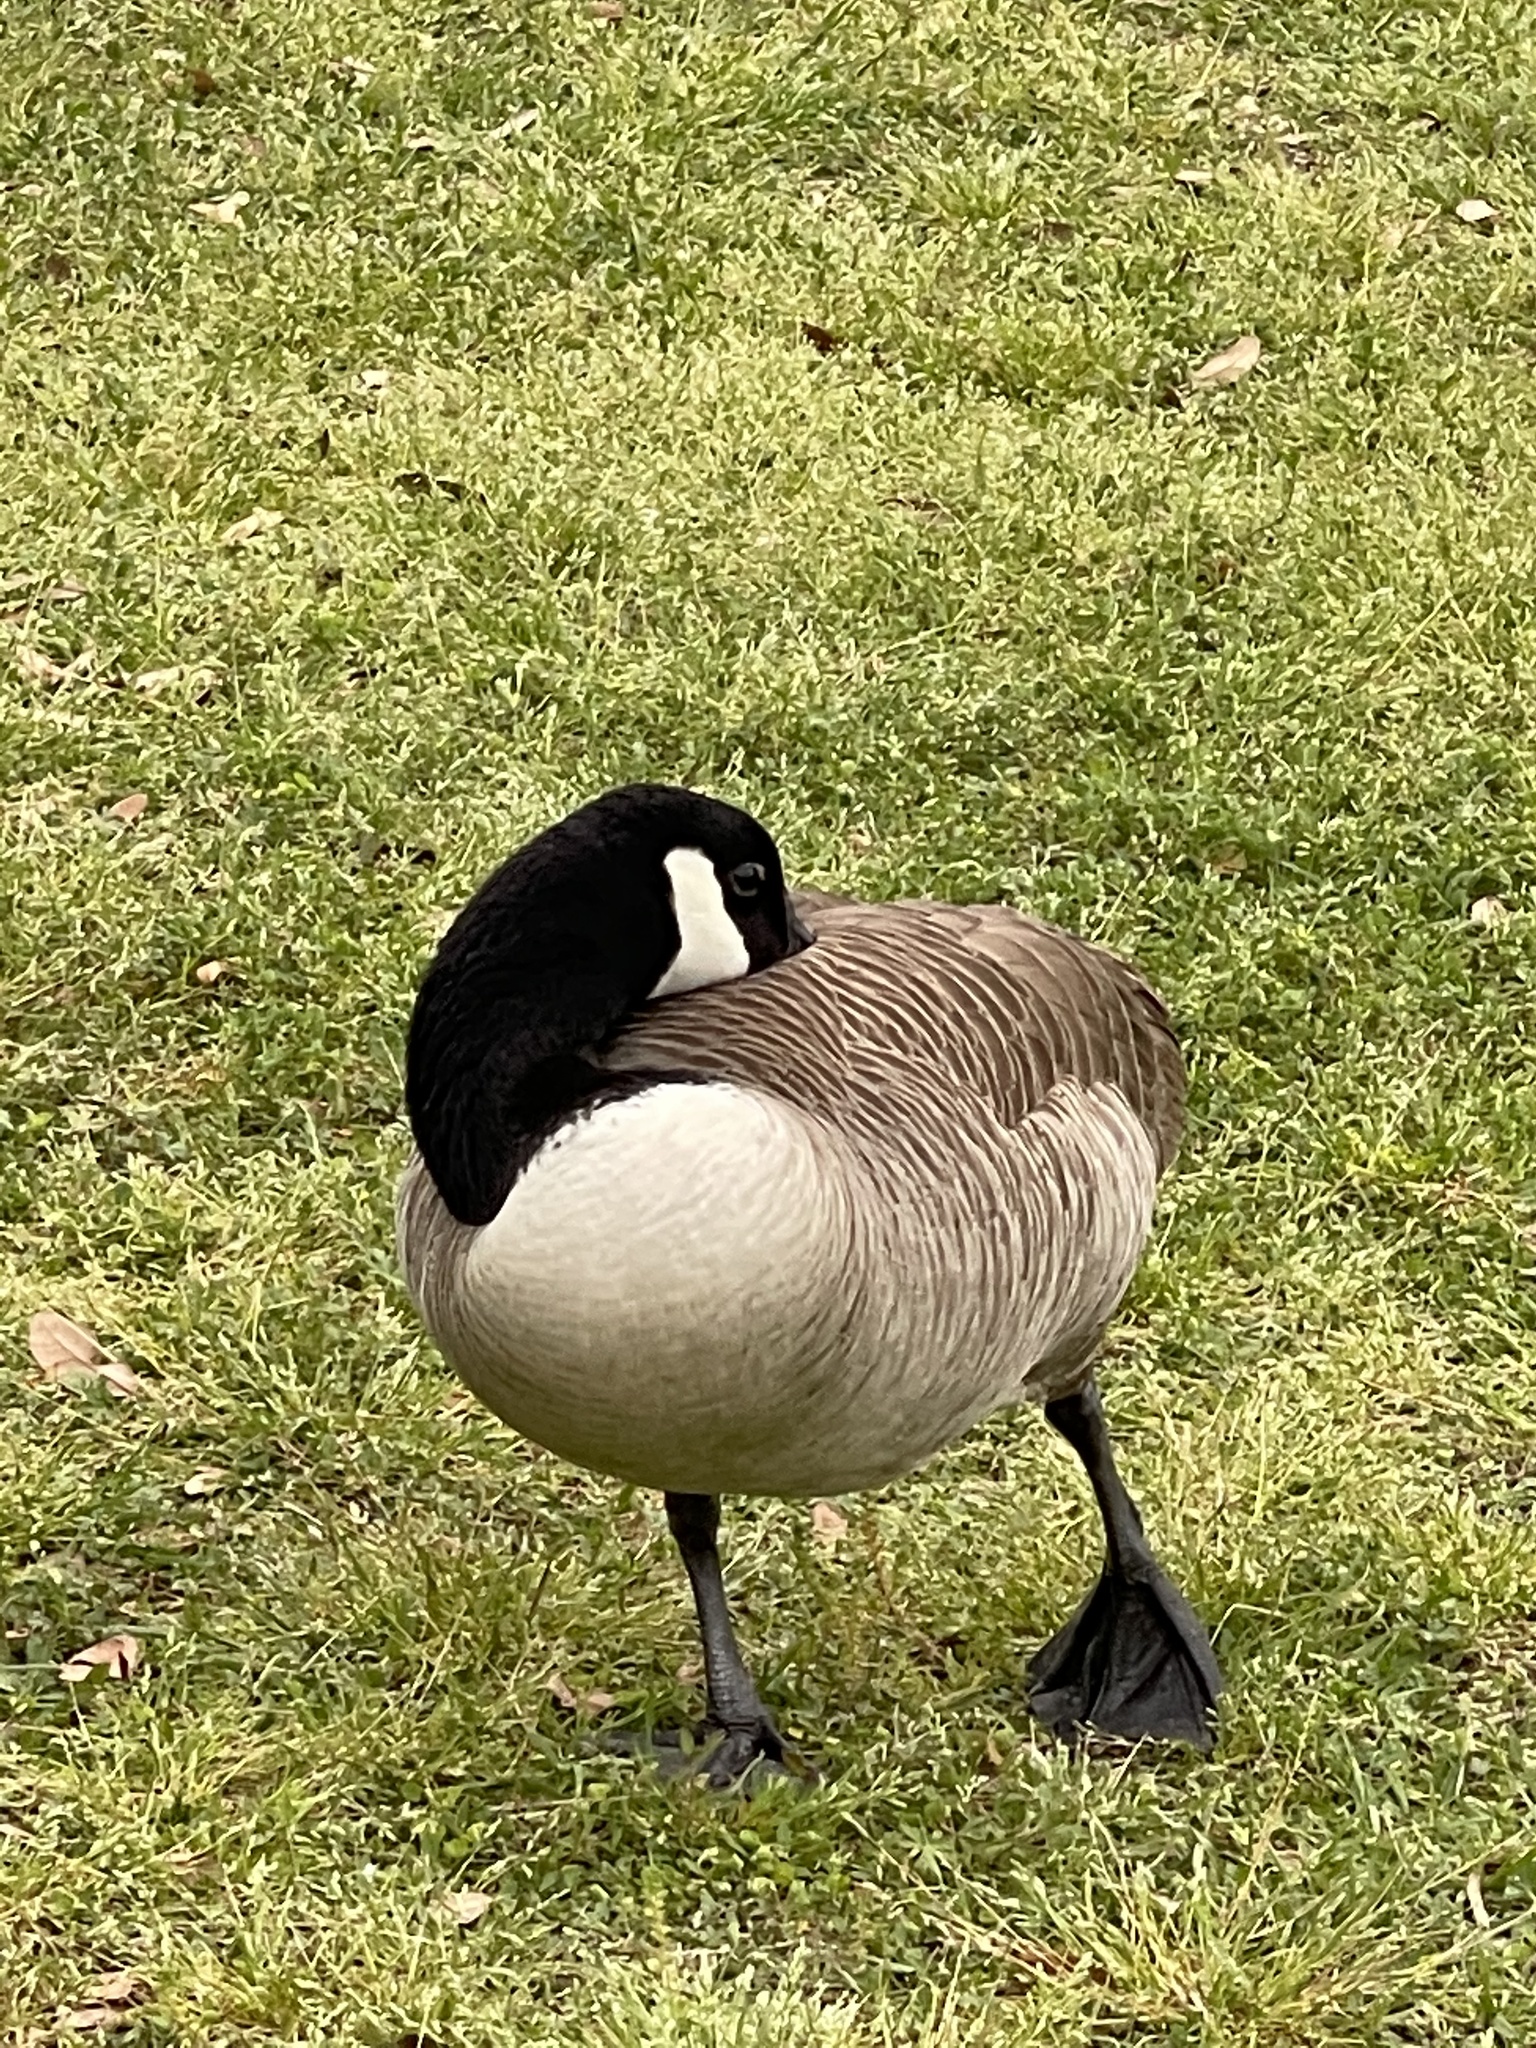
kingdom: Animalia
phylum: Chordata
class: Aves
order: Anseriformes
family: Anatidae
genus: Branta
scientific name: Branta canadensis
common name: Canada goose
